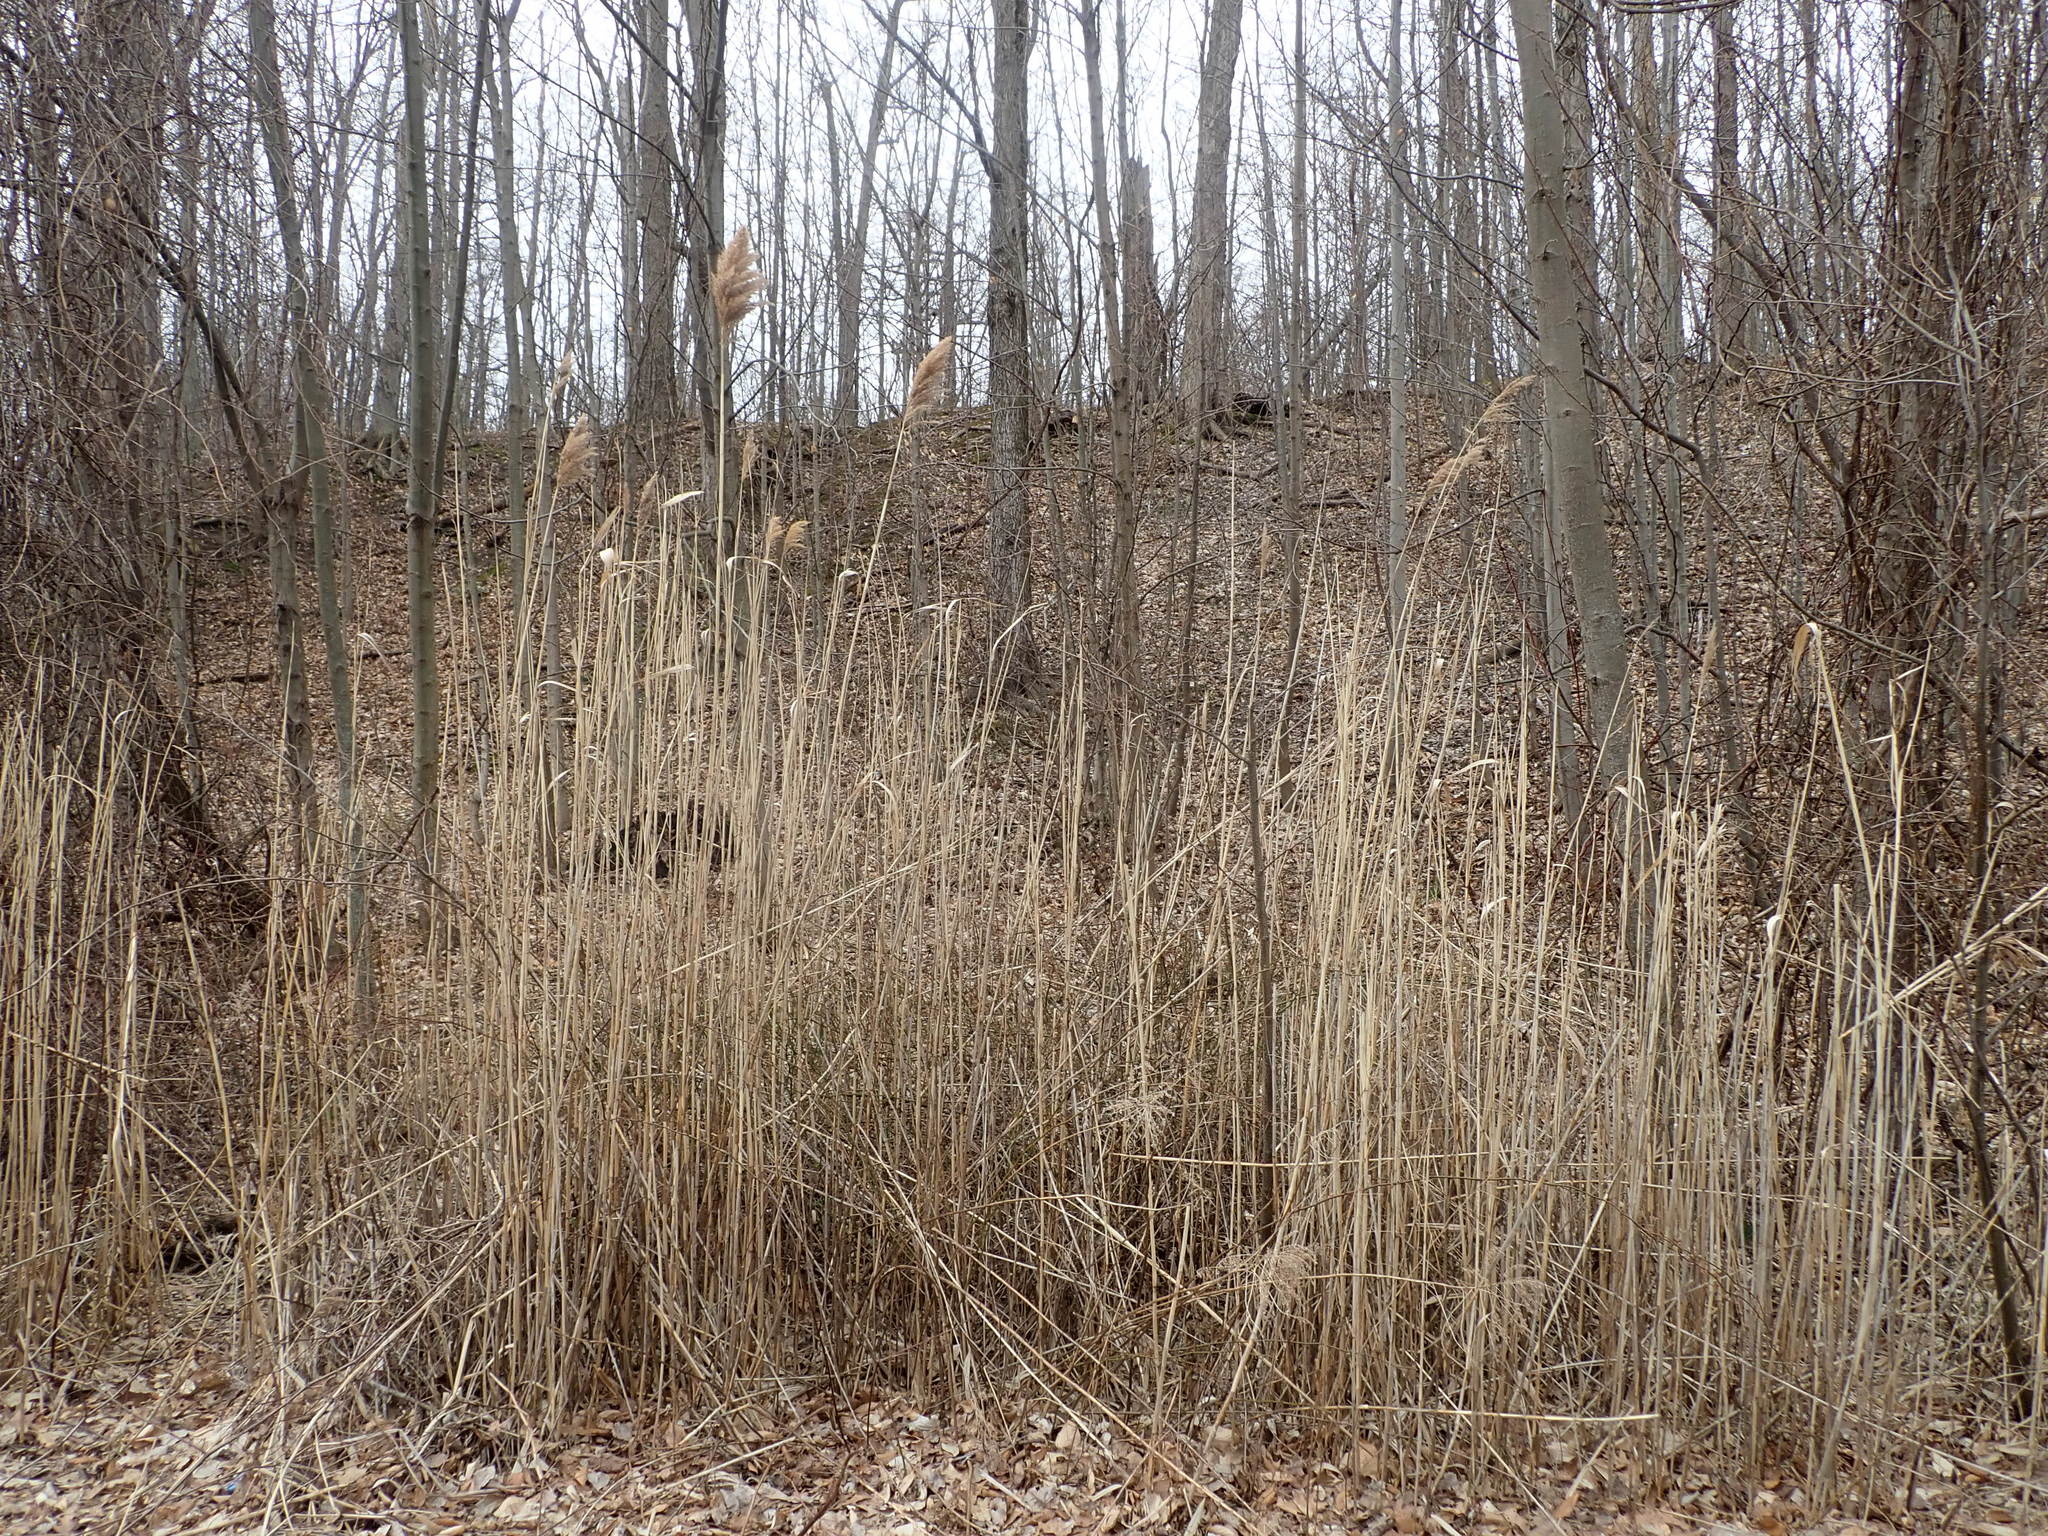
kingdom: Plantae
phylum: Tracheophyta
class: Liliopsida
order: Poales
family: Poaceae
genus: Phragmites
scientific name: Phragmites australis
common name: Common reed
